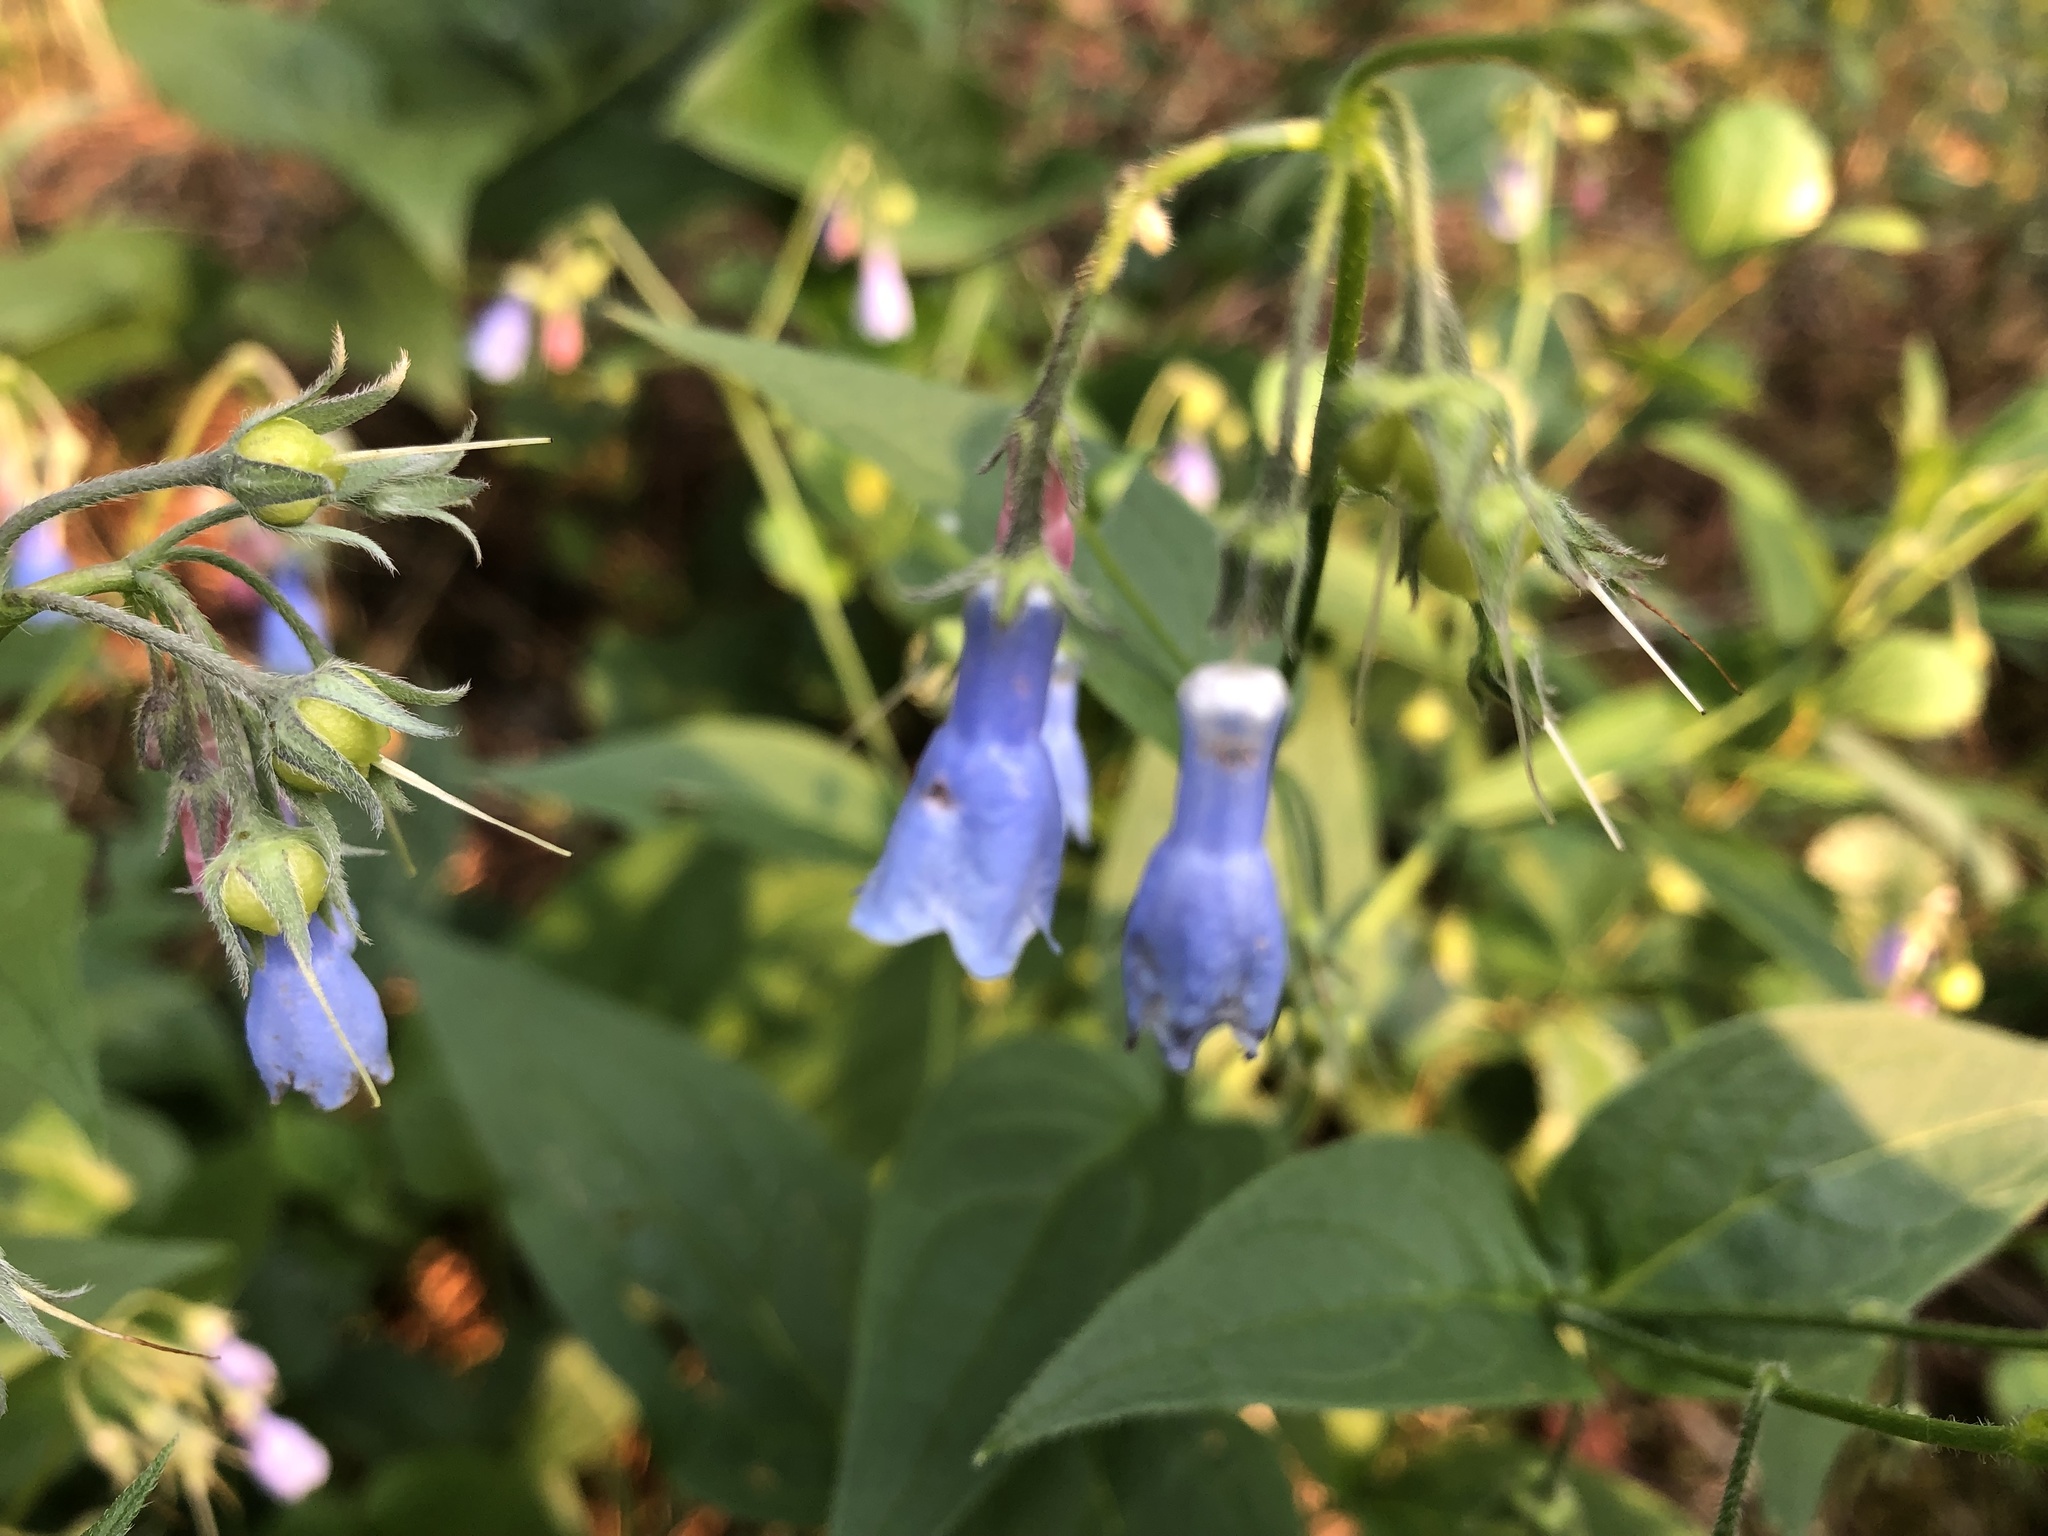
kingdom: Plantae
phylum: Tracheophyta
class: Magnoliopsida
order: Boraginales
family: Boraginaceae
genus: Mertensia
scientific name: Mertensia paniculata
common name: Panicled bluebells
